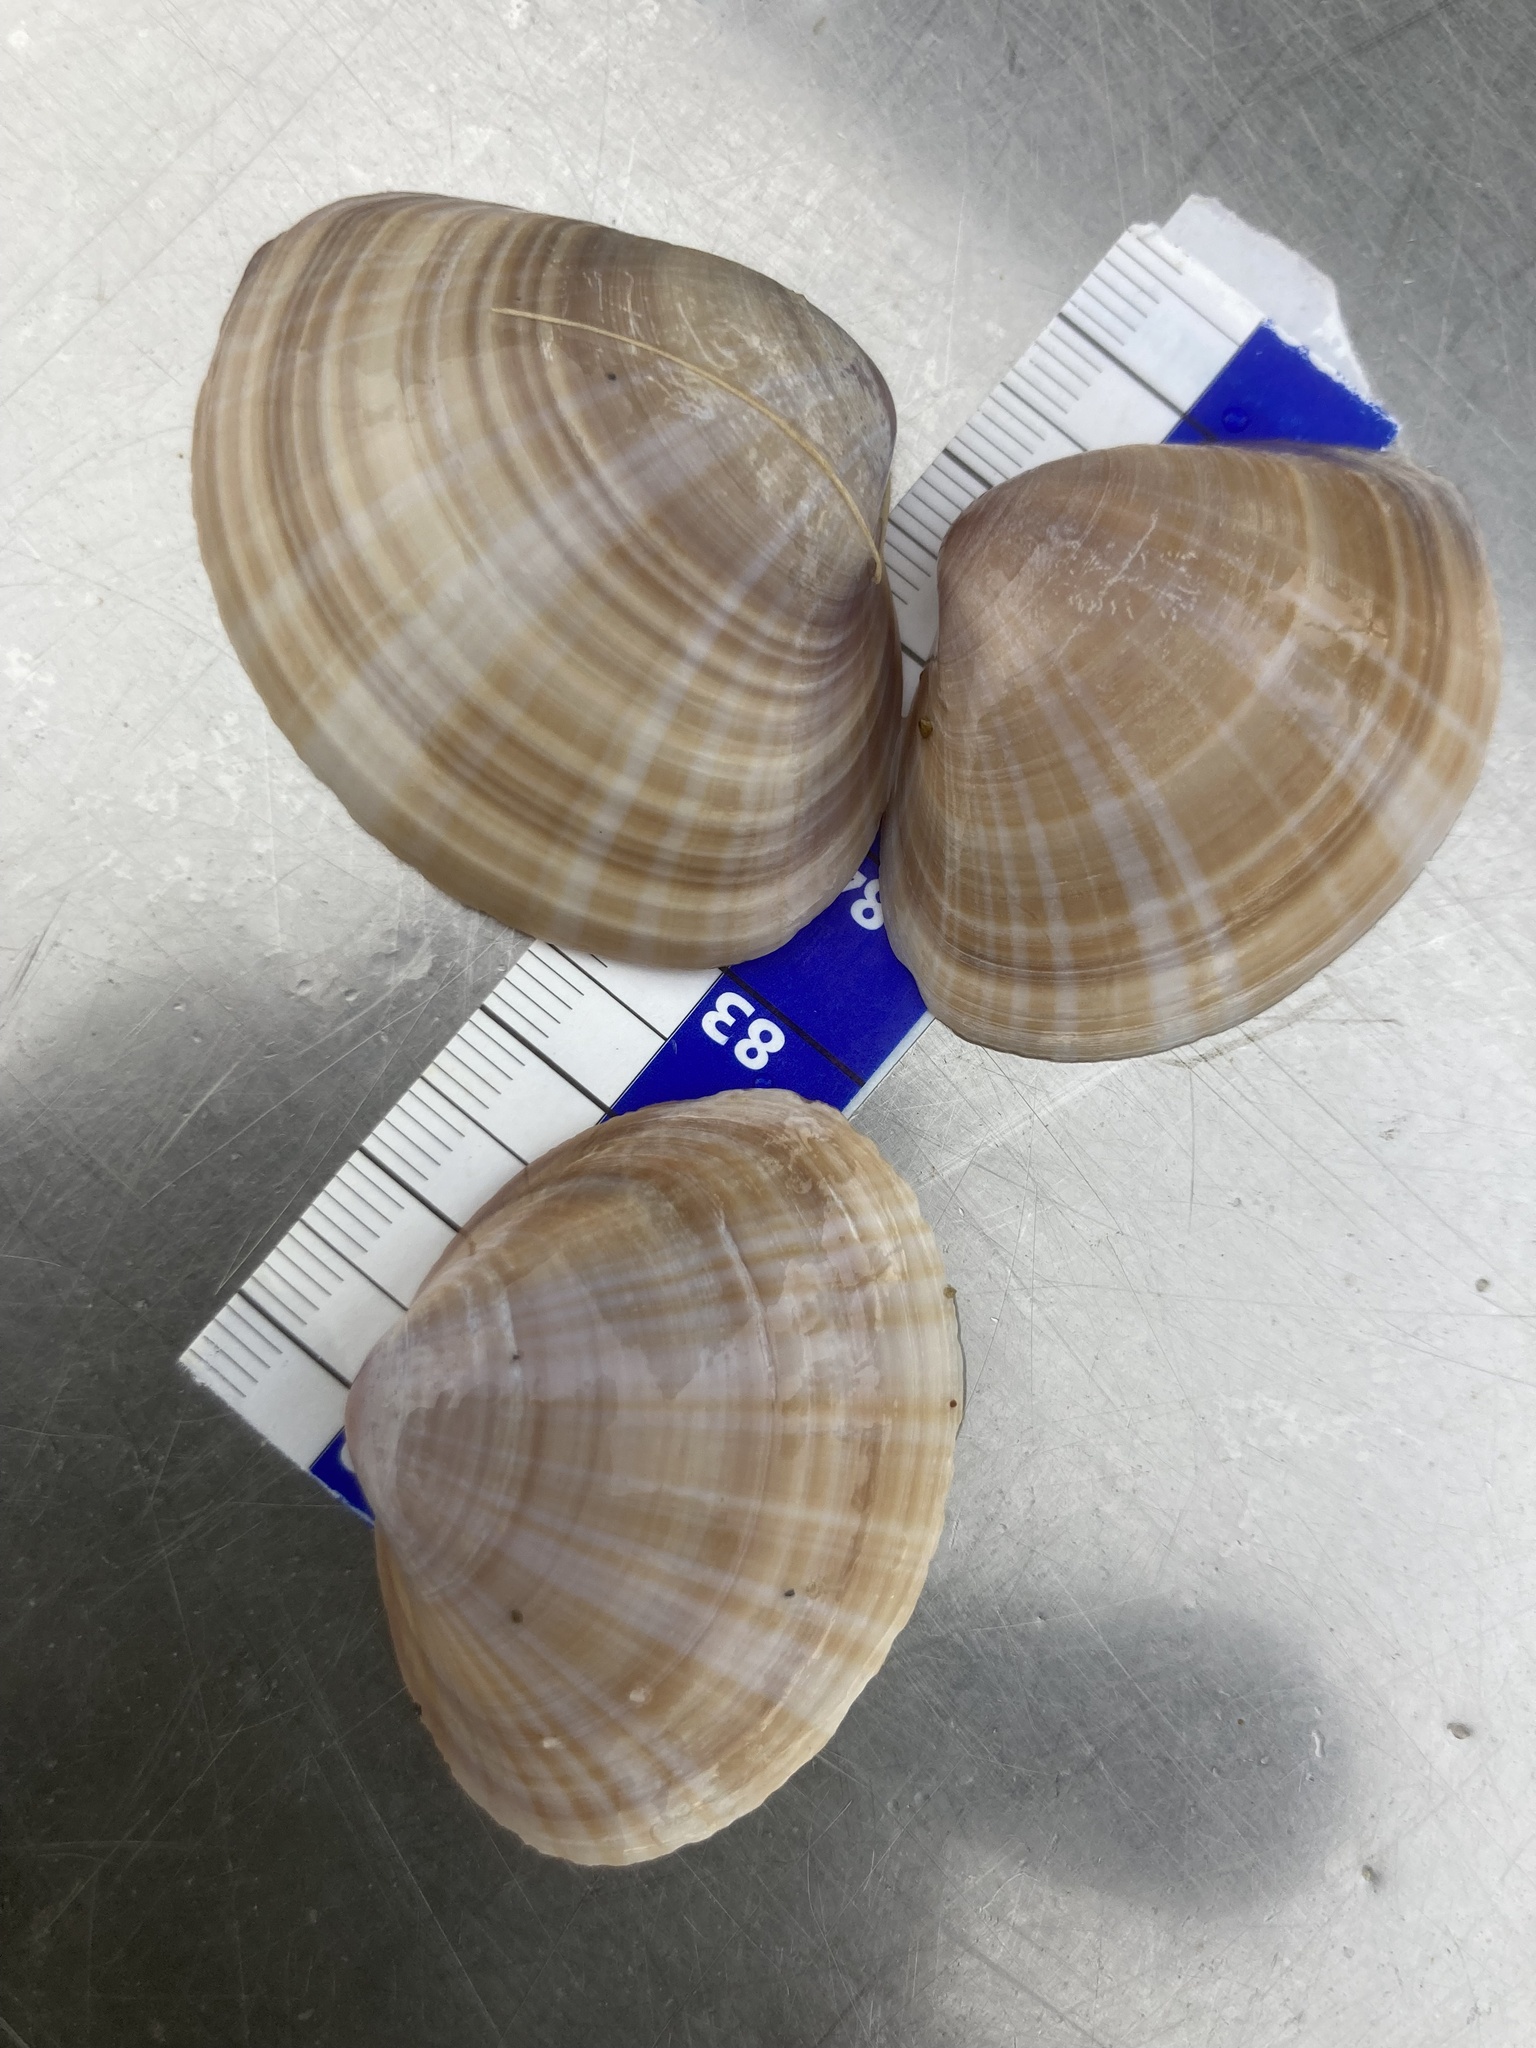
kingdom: Animalia
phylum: Mollusca
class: Bivalvia
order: Venerida
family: Mactridae
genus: Mactra
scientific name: Mactra stultorum
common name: Rayed trough shell
